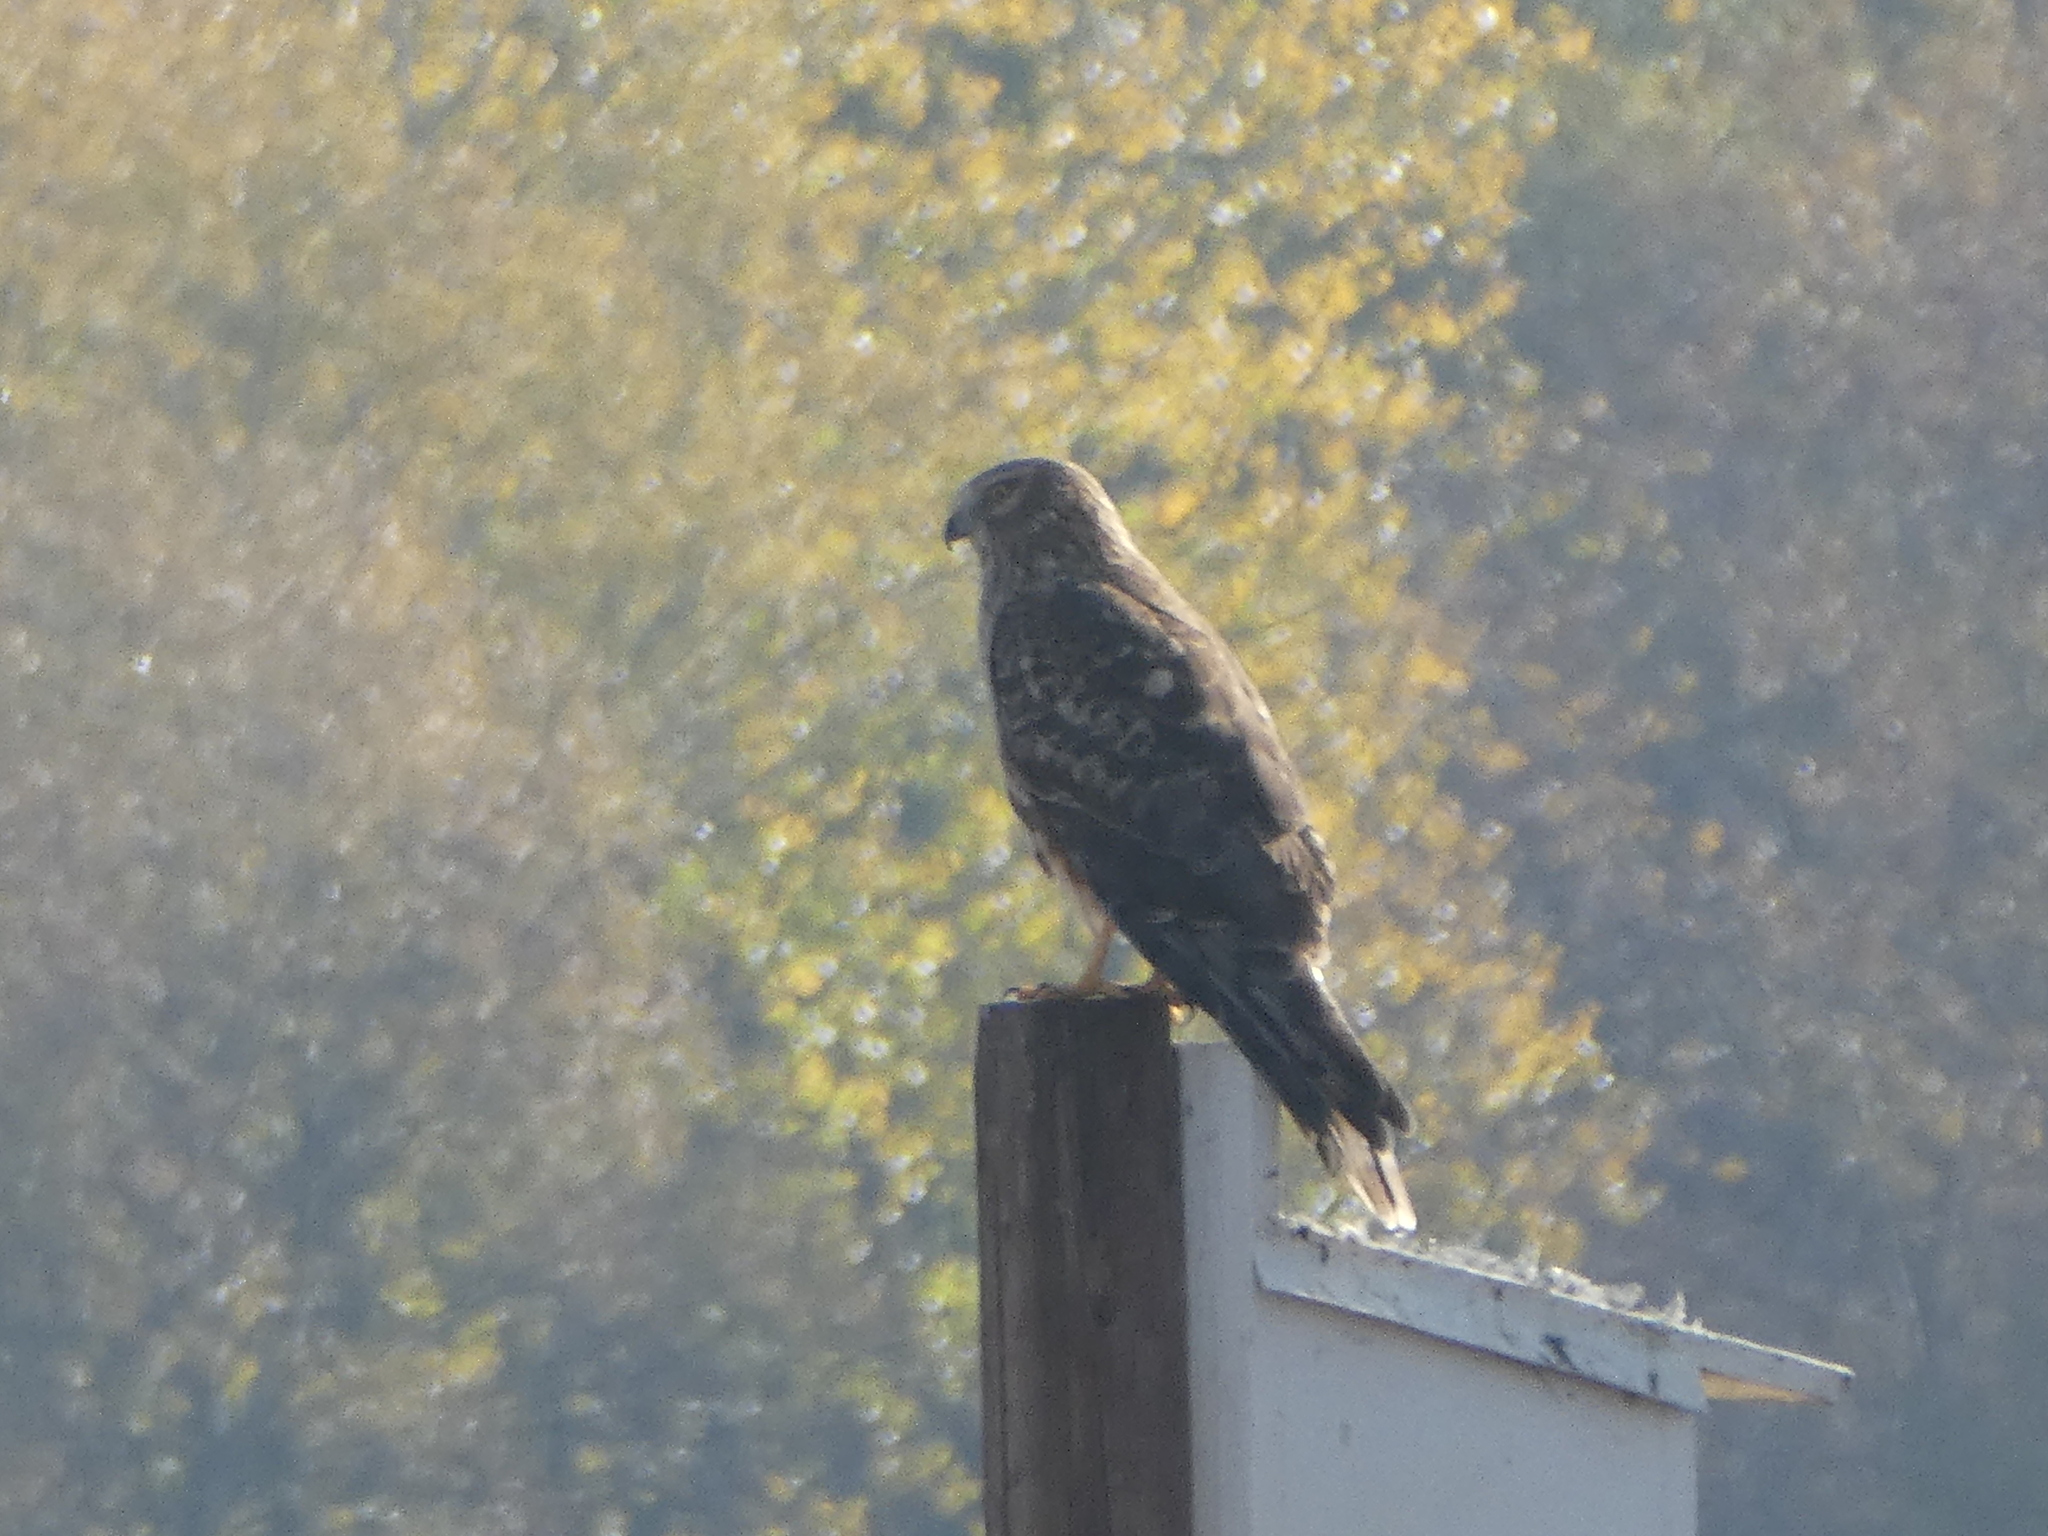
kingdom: Animalia
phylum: Chordata
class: Aves
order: Accipitriformes
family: Accipitridae
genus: Circus
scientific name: Circus cyaneus
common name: Hen harrier
